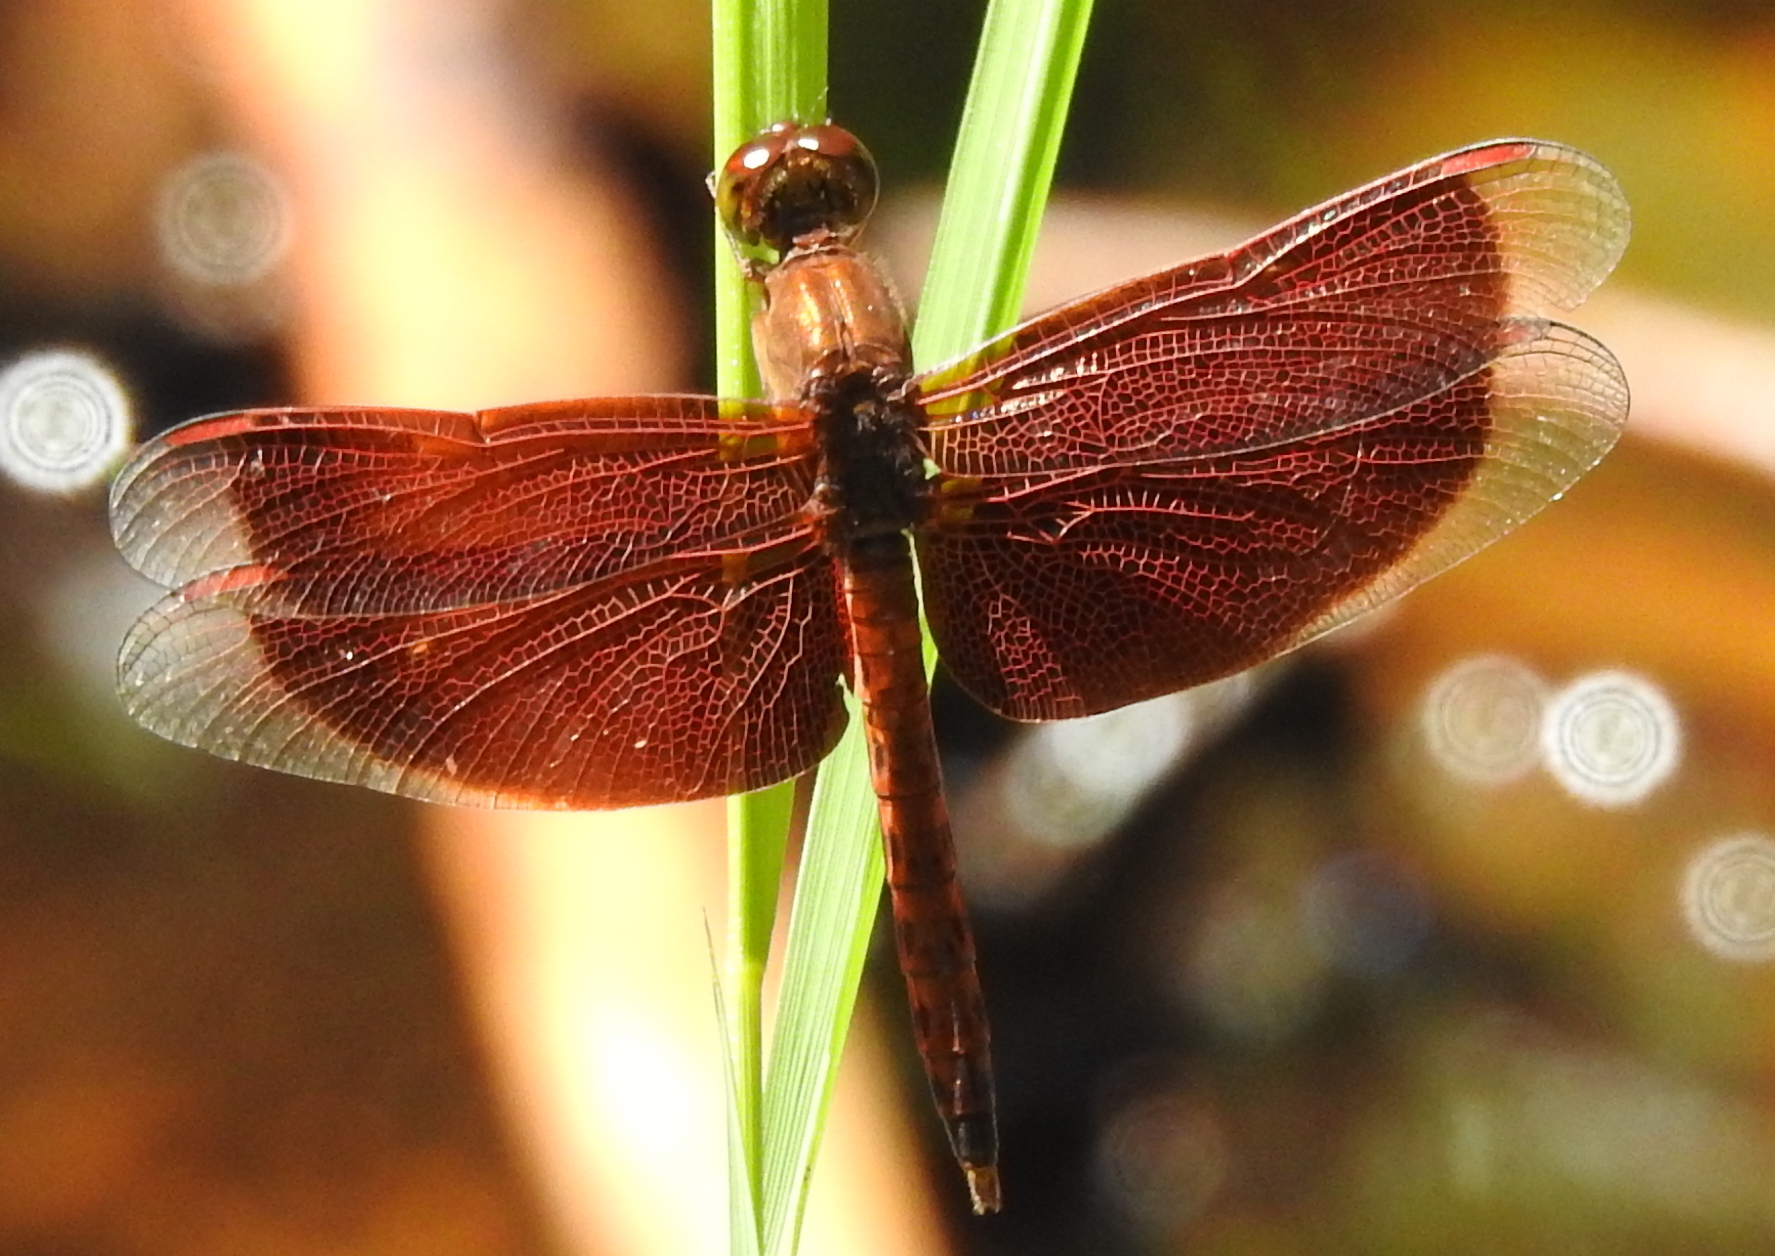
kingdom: Animalia
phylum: Arthropoda
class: Insecta
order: Odonata
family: Libellulidae
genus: Neurothemis
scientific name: Neurothemis fluctuans
